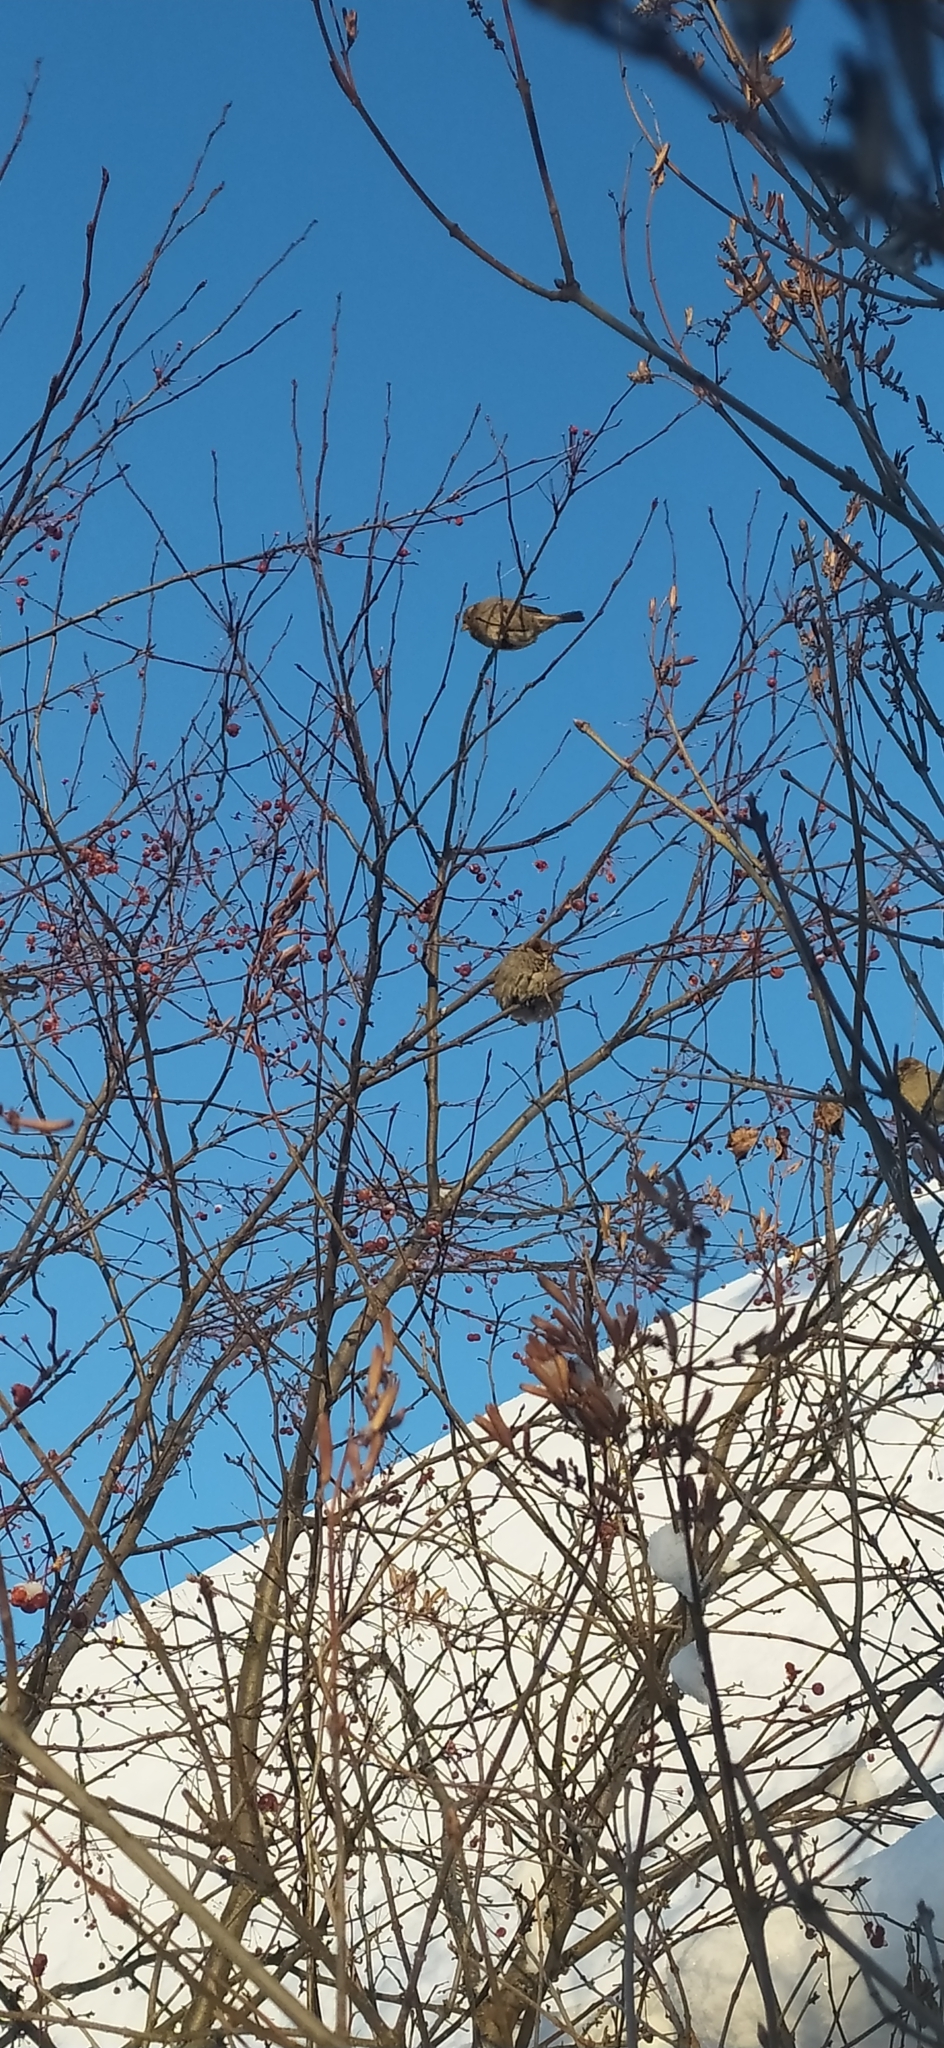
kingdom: Animalia
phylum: Chordata
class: Aves
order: Passeriformes
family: Passeridae
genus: Passer
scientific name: Passer domesticus
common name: House sparrow
